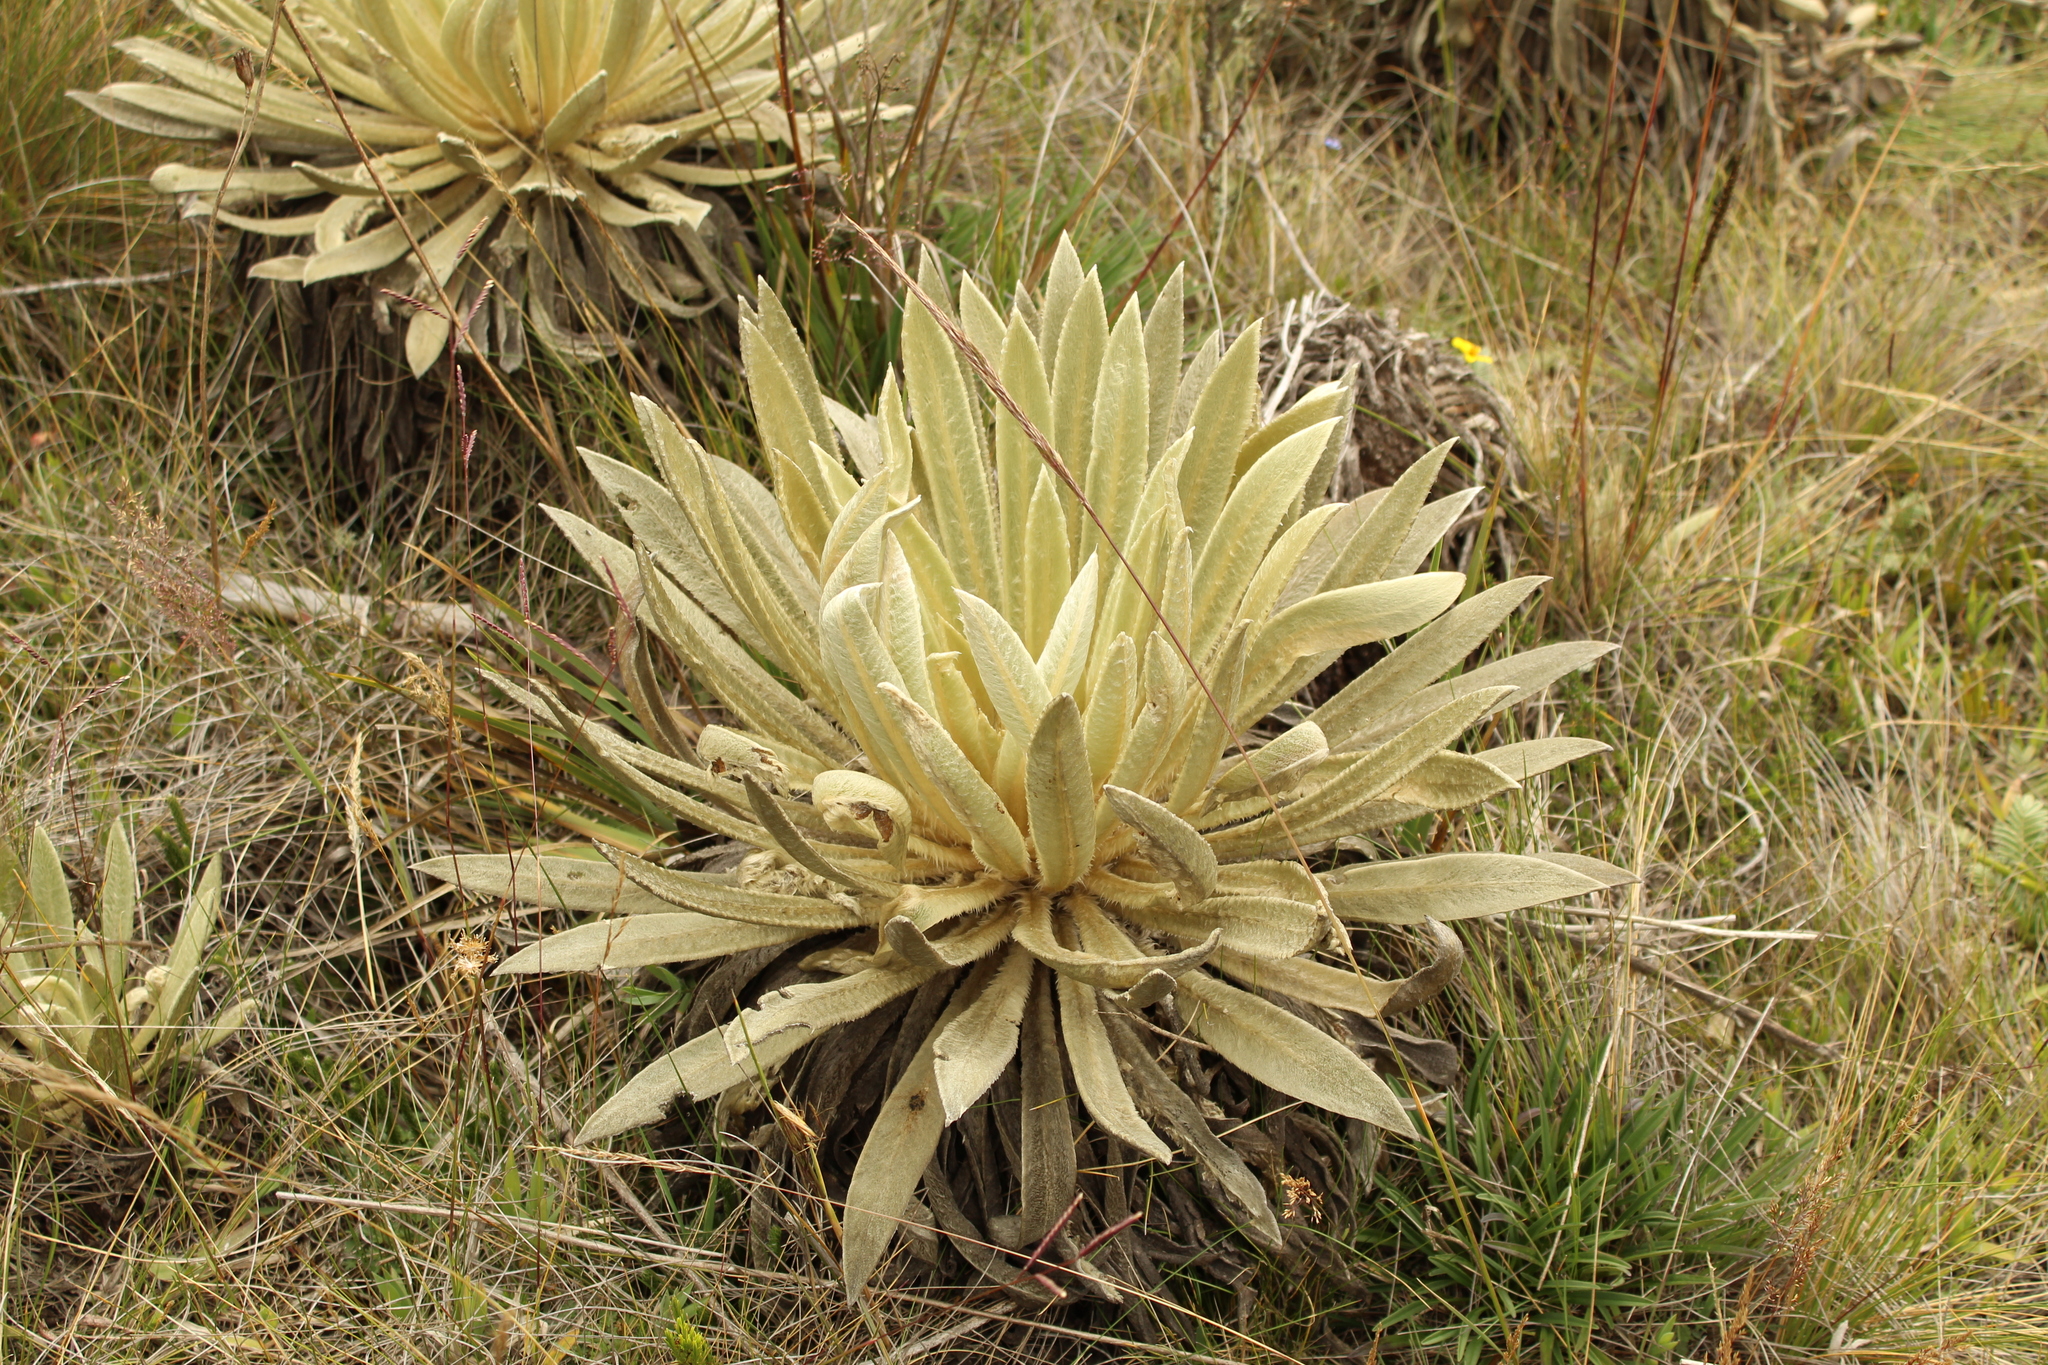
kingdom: Plantae
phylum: Tracheophyta
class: Magnoliopsida
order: Asterales
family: Asteraceae
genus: Espeletia
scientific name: Espeletia muiska
